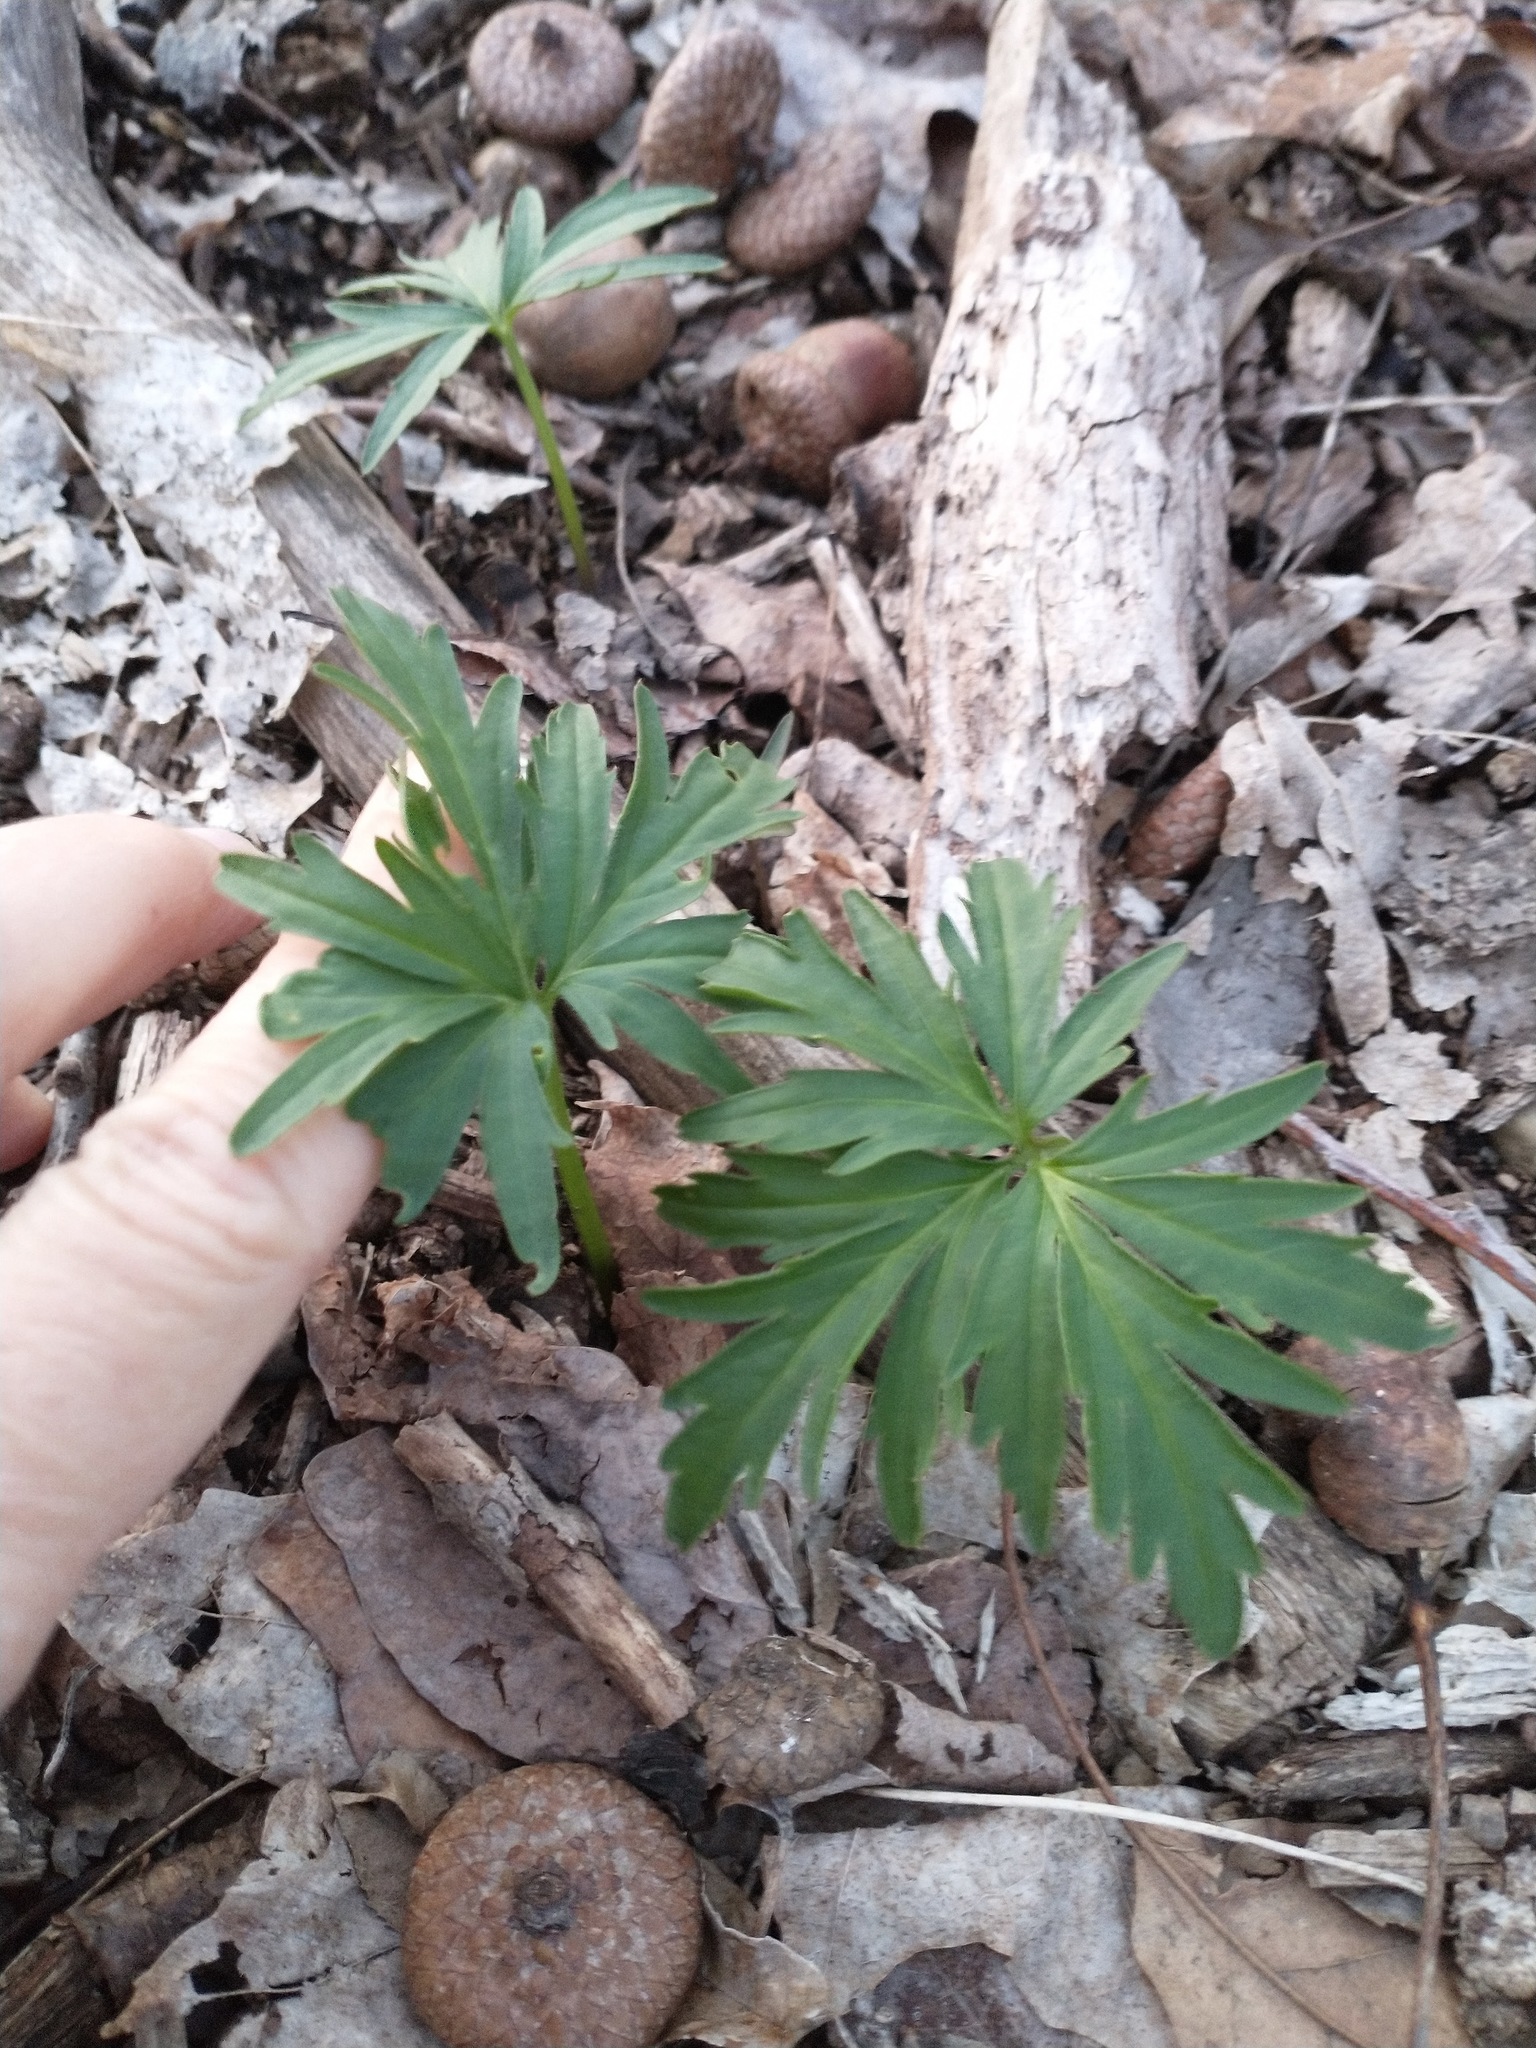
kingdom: Plantae
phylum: Tracheophyta
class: Magnoliopsida
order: Brassicales
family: Brassicaceae
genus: Cardamine
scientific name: Cardamine concatenata
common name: Cut-leaf toothcup
